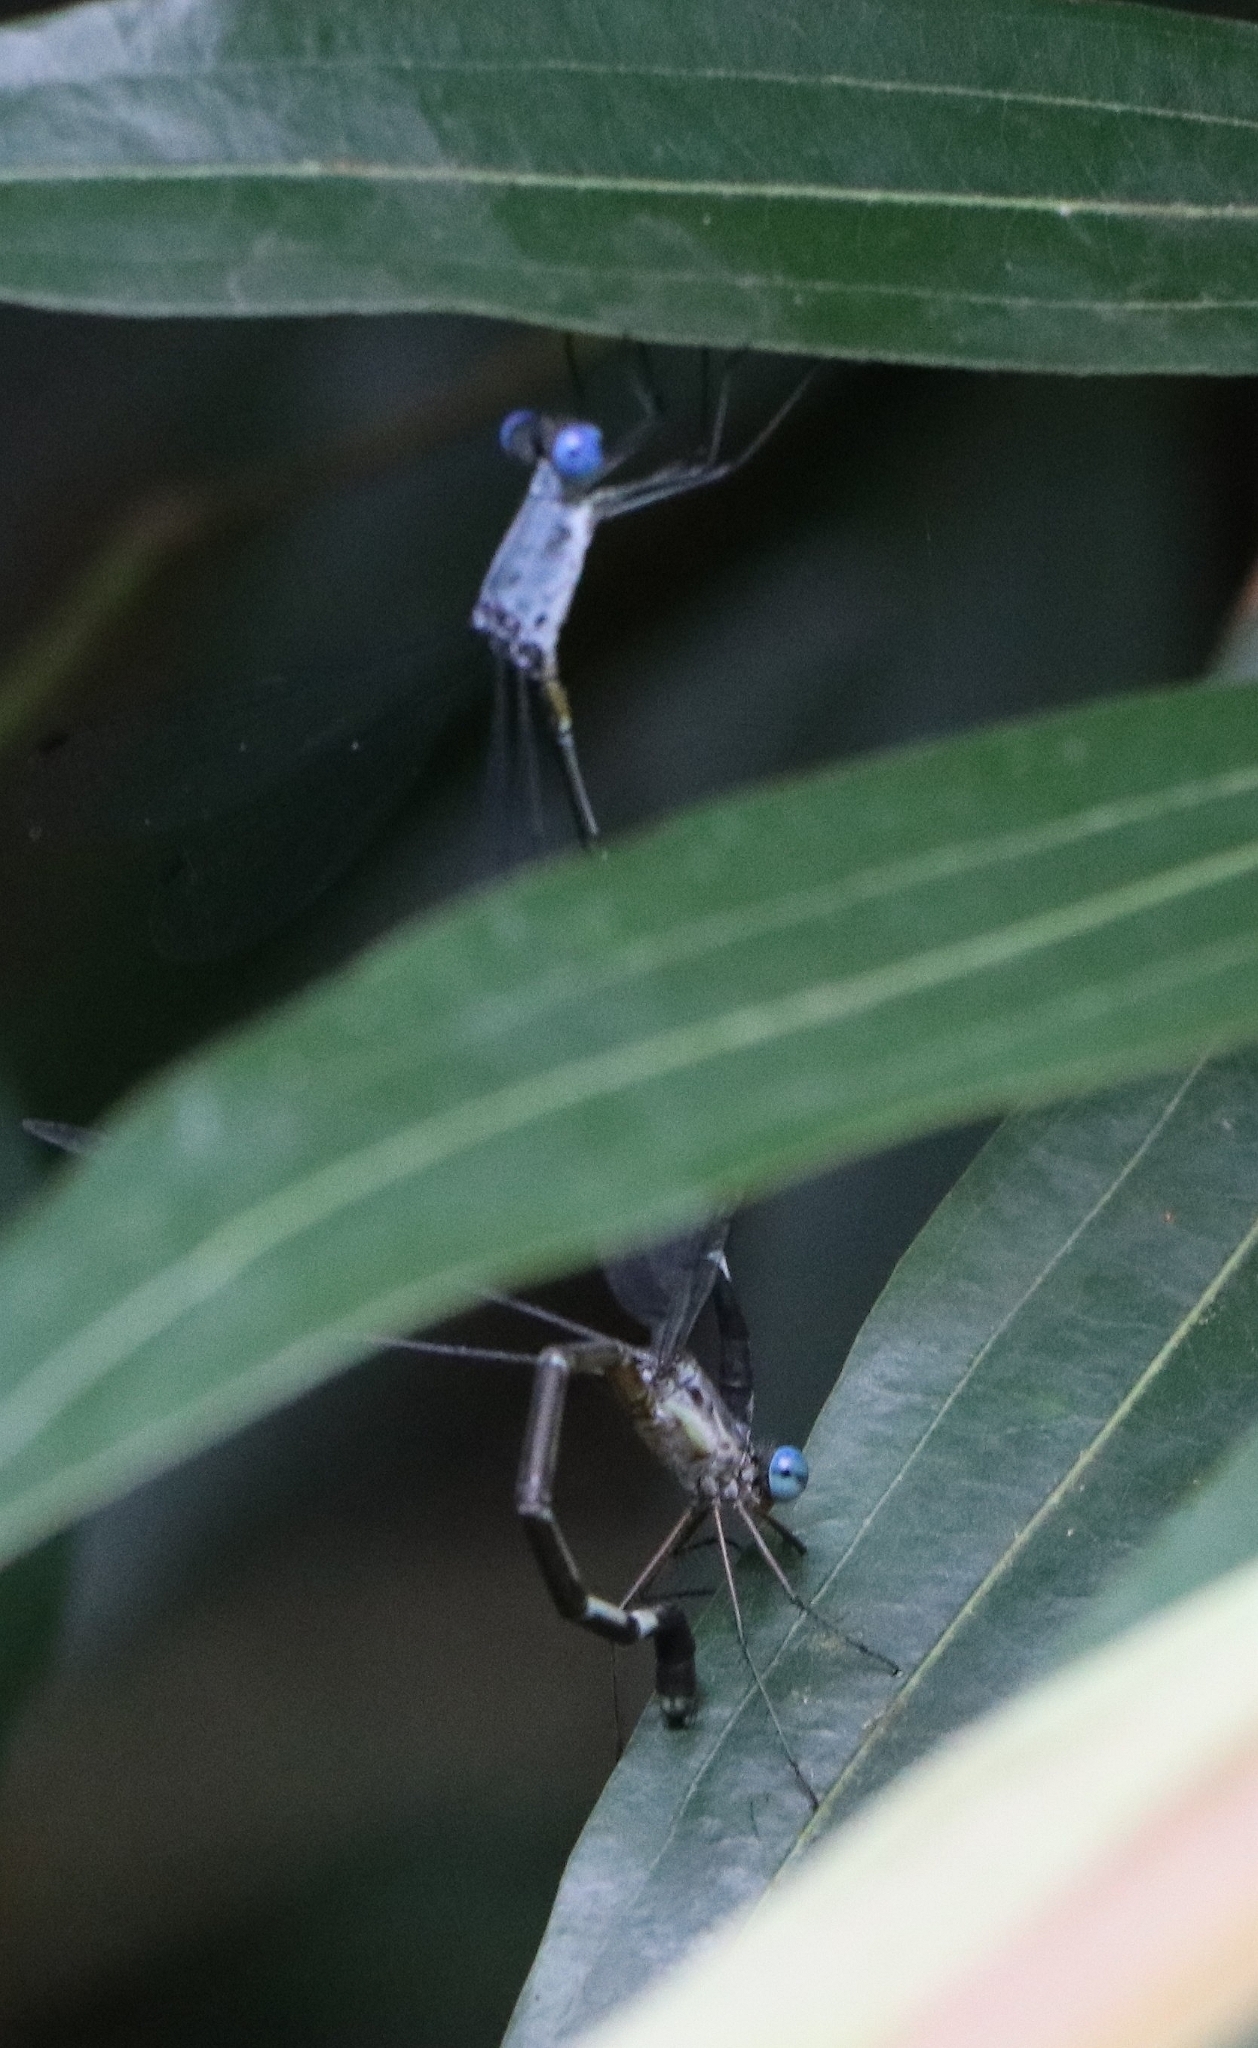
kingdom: Animalia
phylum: Arthropoda
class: Insecta
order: Odonata
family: Lestidae
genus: Lestes
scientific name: Lestes dorothea
